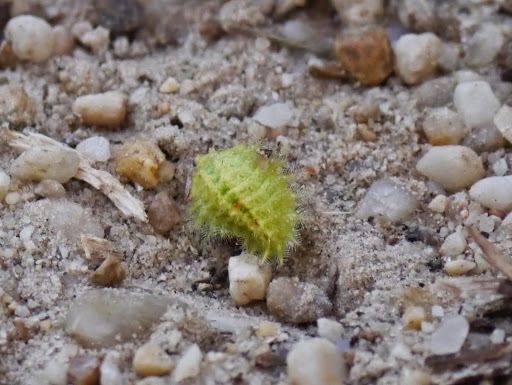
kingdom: Animalia
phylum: Arthropoda
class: Insecta
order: Lepidoptera
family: Limacodidae
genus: Isa
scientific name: Isa textula
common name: Crowned slug moth
